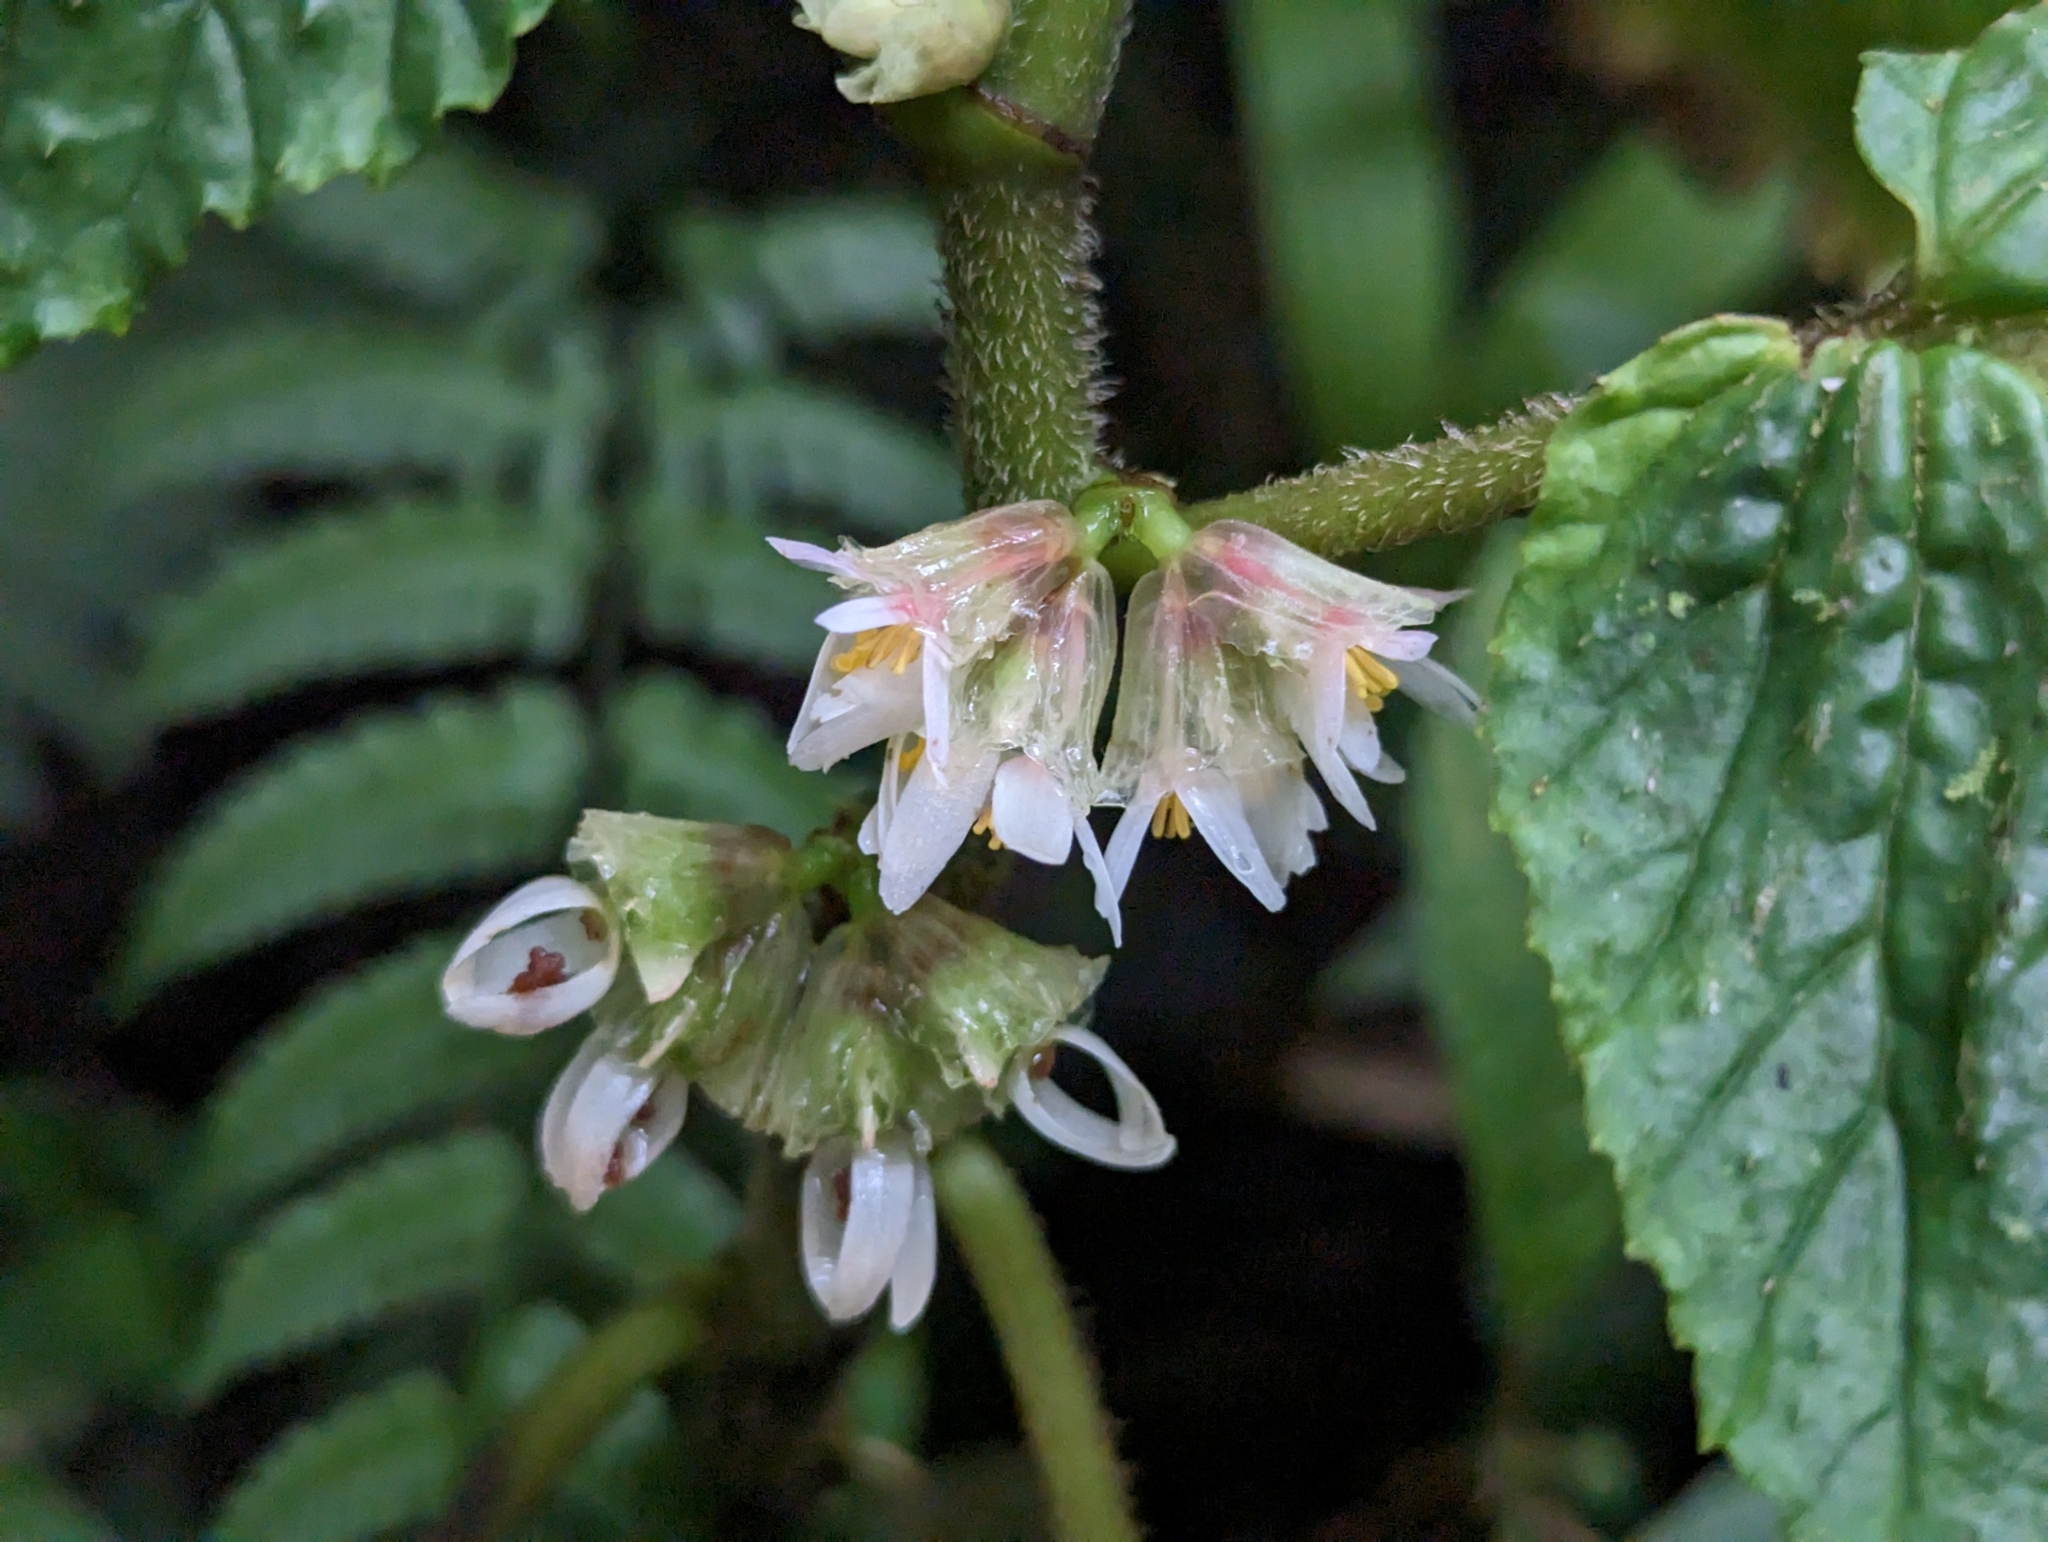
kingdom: Plantae
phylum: Tracheophyta
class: Magnoliopsida
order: Cucurbitales
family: Begoniaceae
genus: Begonia
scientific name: Begonia tiliifolia
